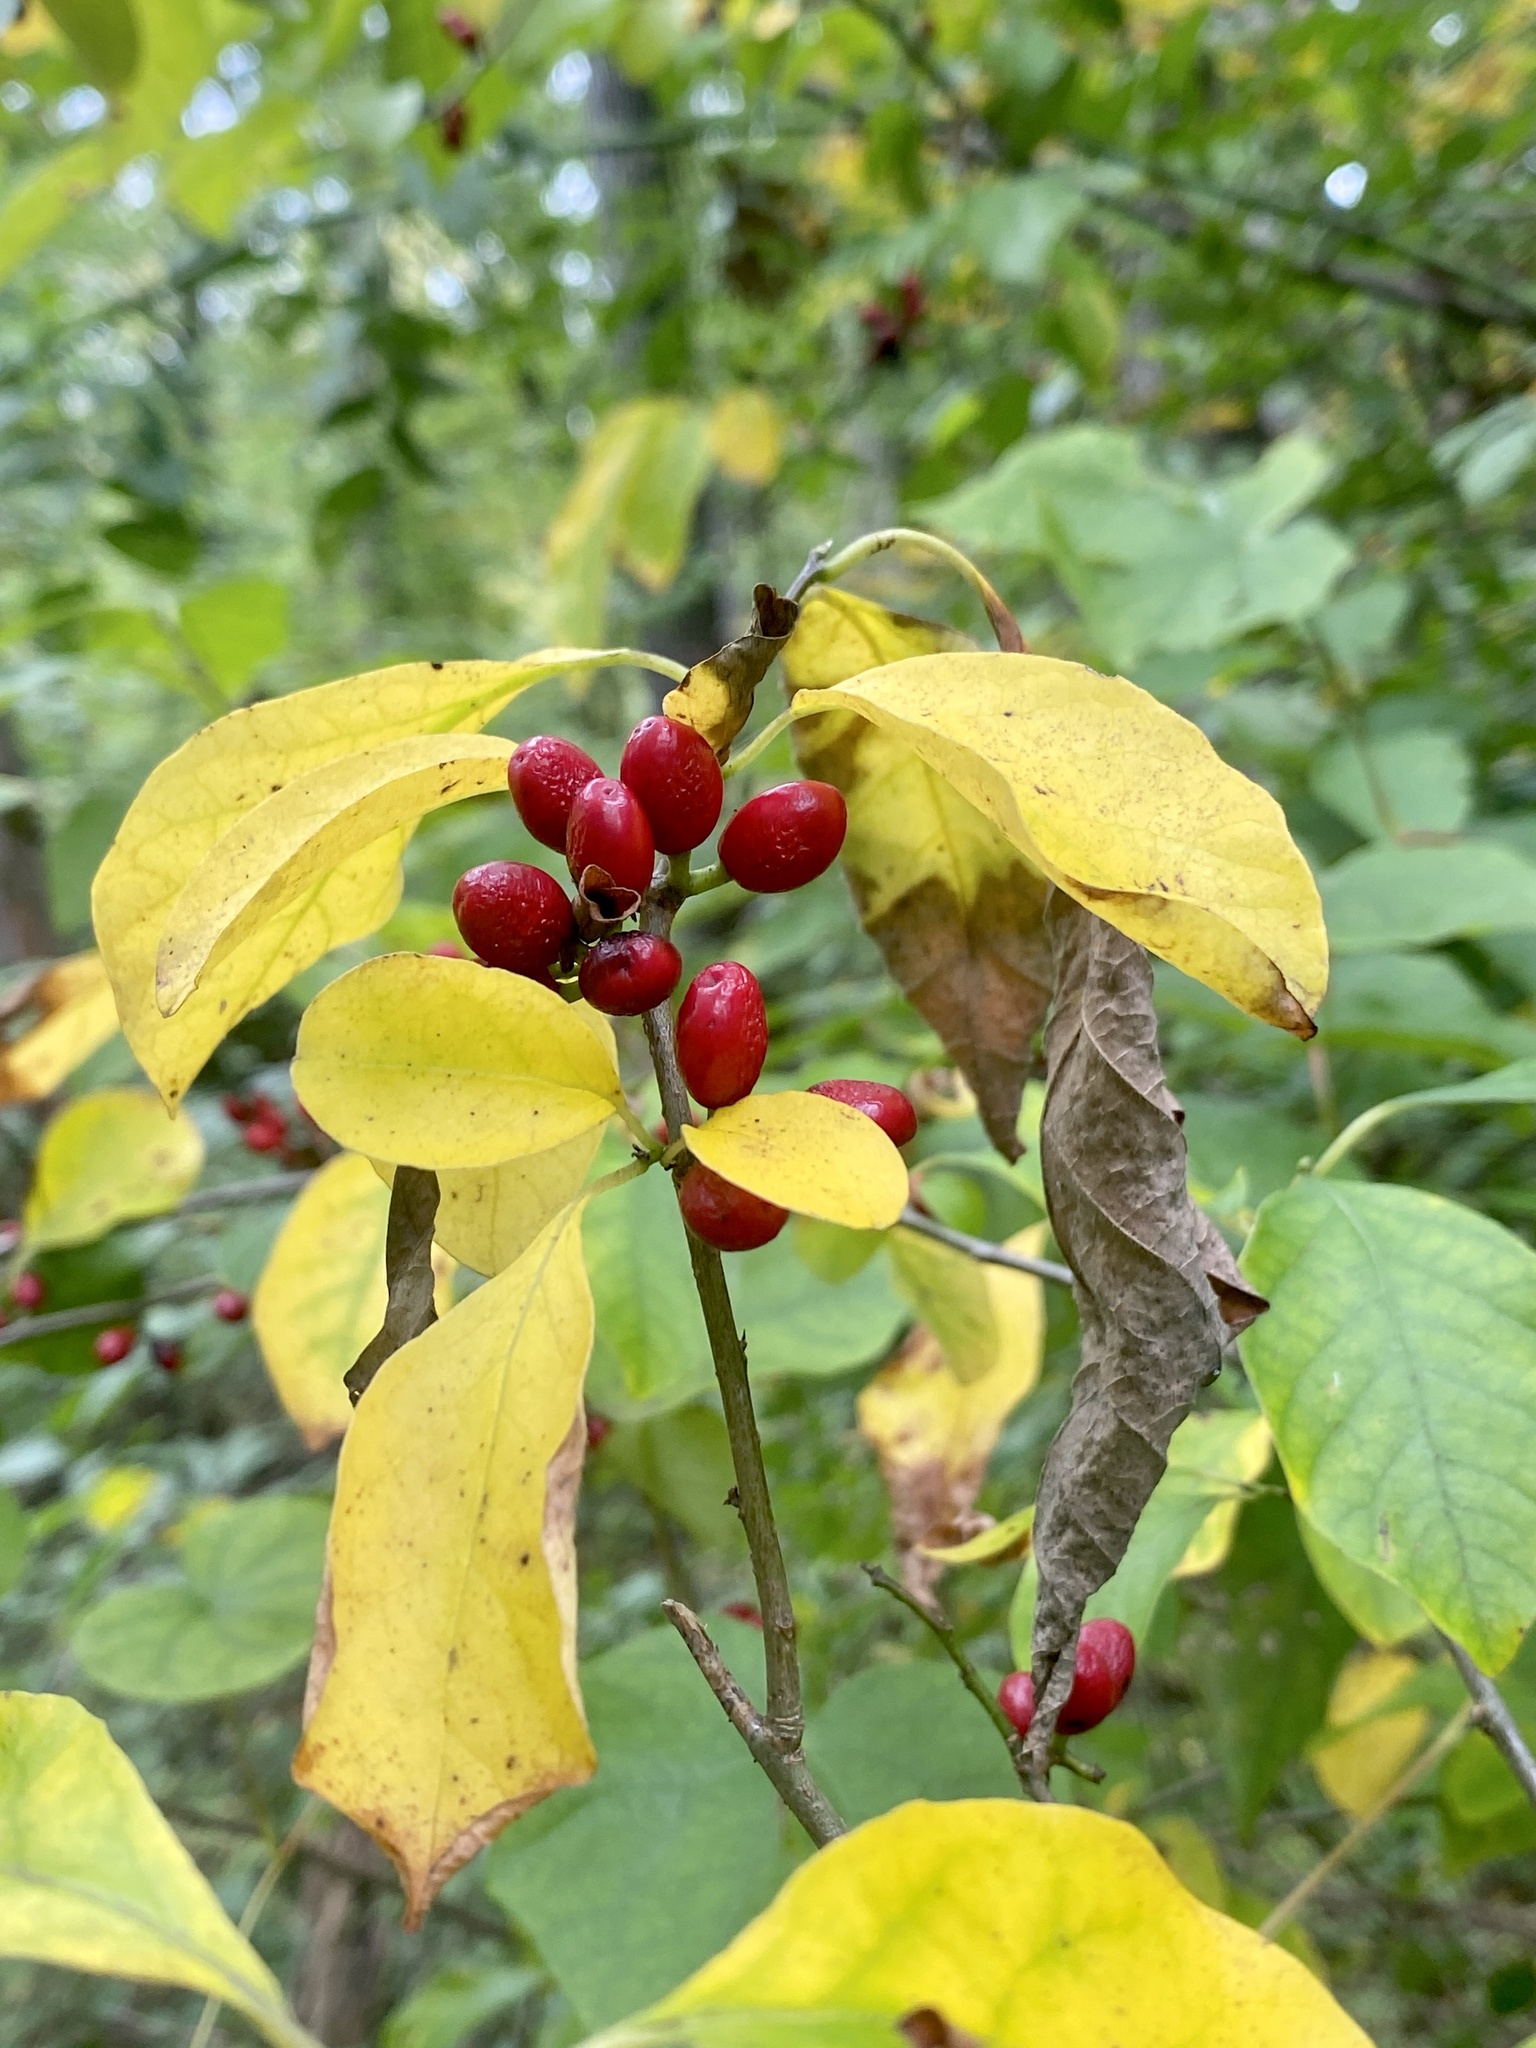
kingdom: Plantae
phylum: Tracheophyta
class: Magnoliopsida
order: Laurales
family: Lauraceae
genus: Lindera
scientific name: Lindera benzoin
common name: Spicebush
